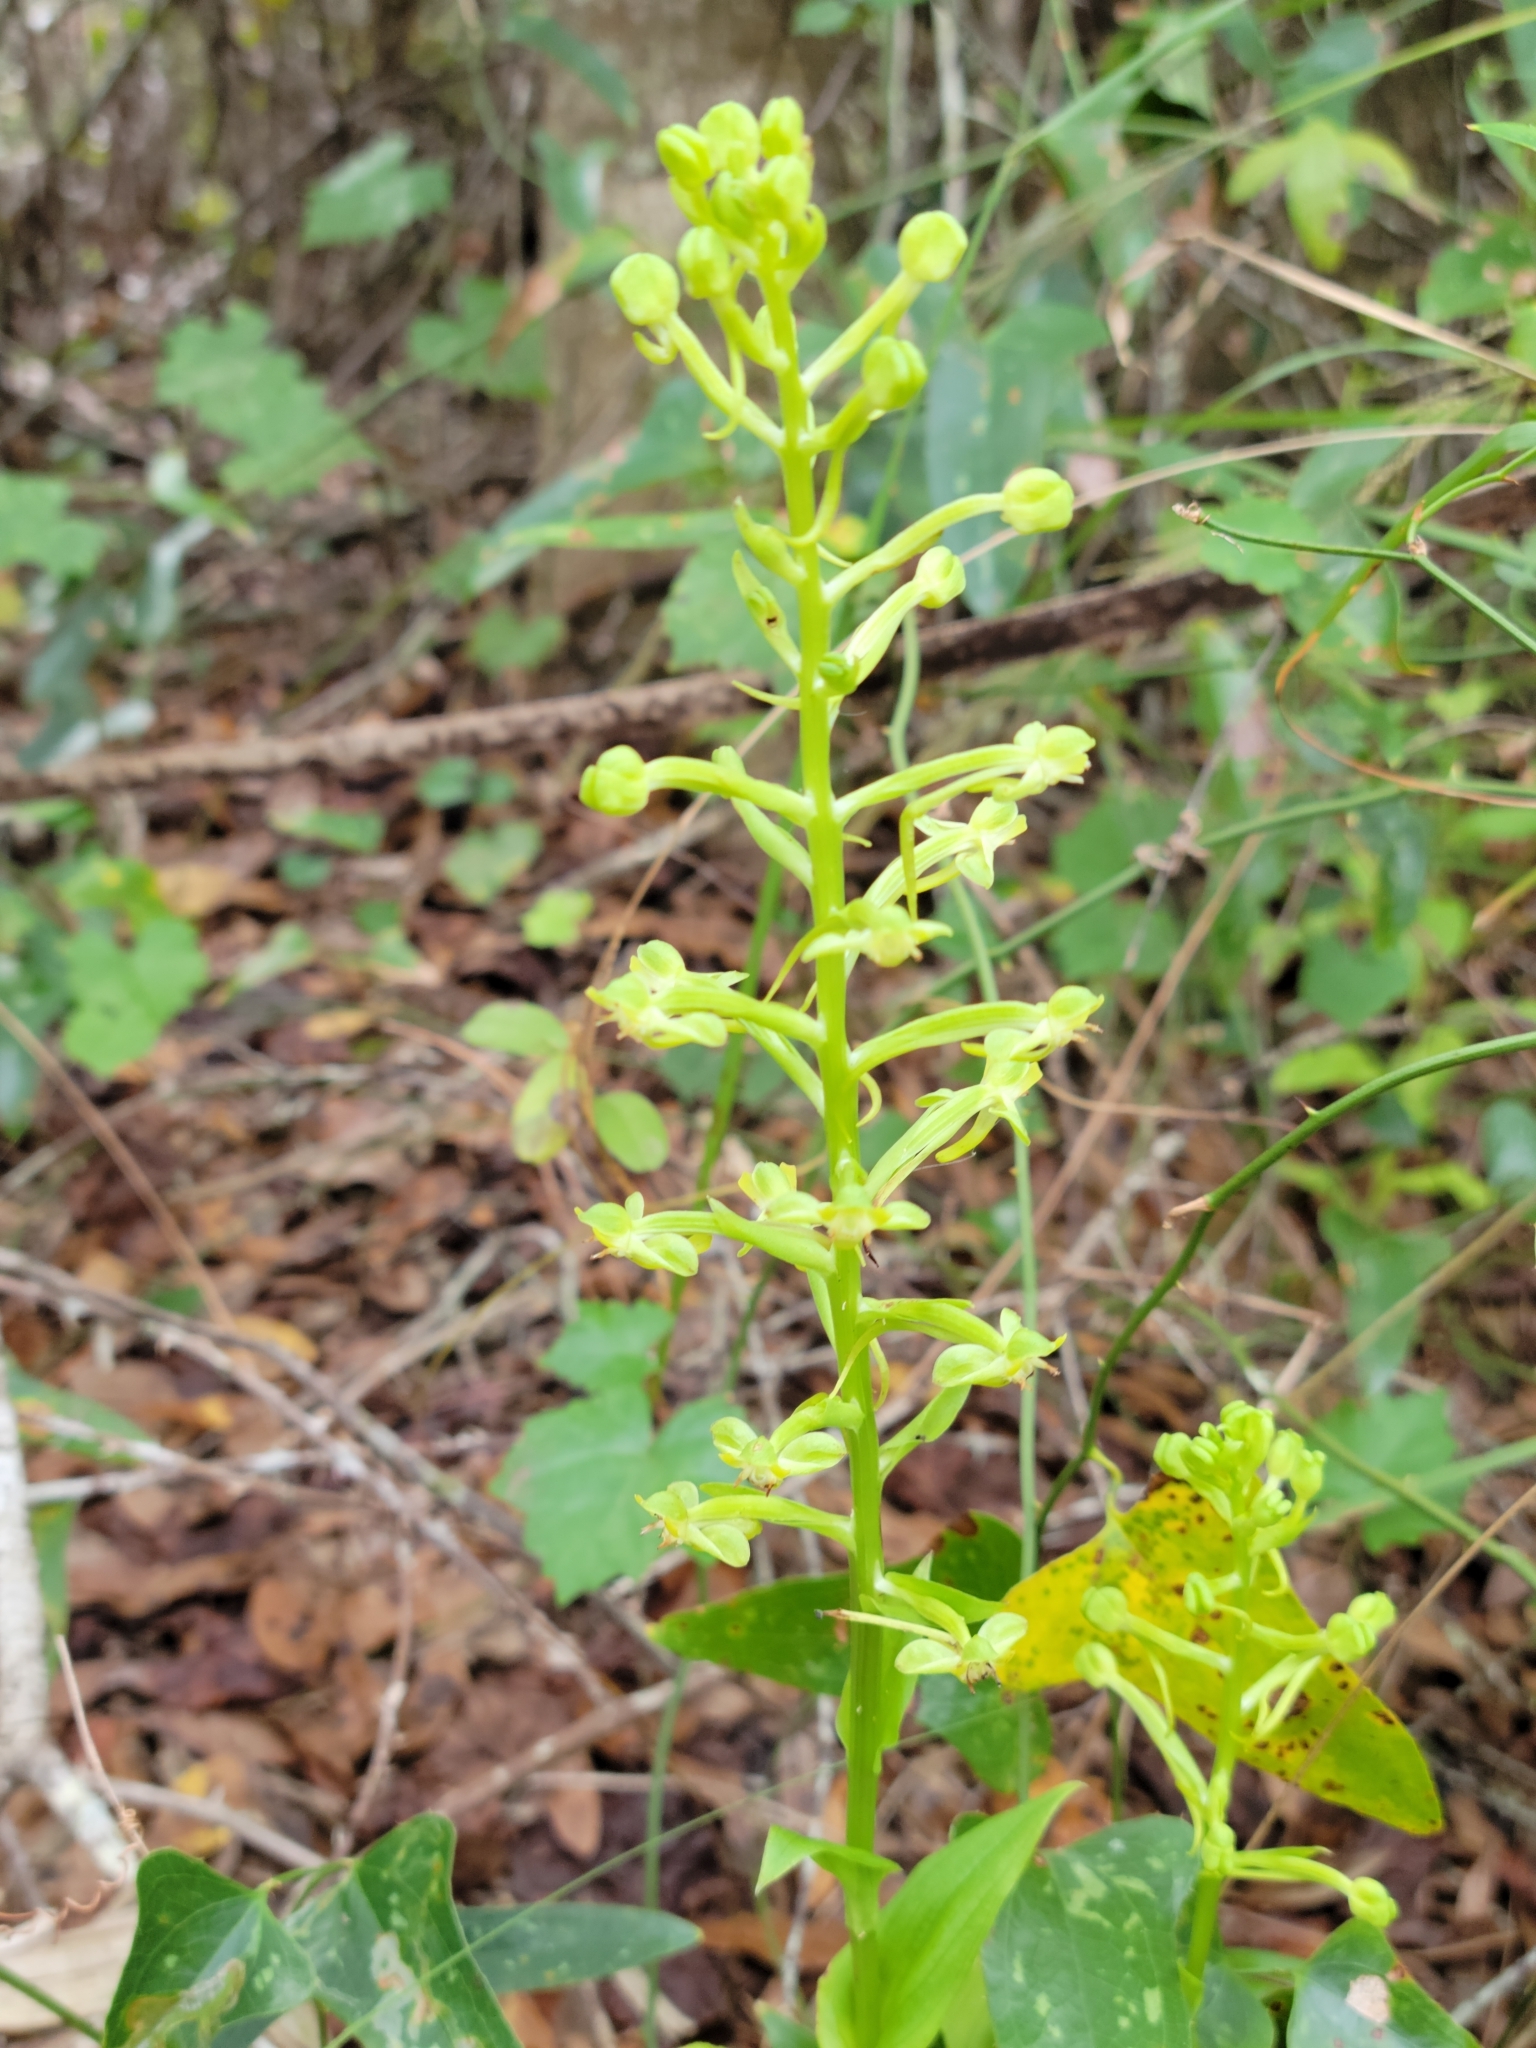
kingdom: Plantae
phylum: Tracheophyta
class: Liliopsida
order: Asparagales
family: Orchidaceae
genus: Habenaria
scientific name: Habenaria floribunda
